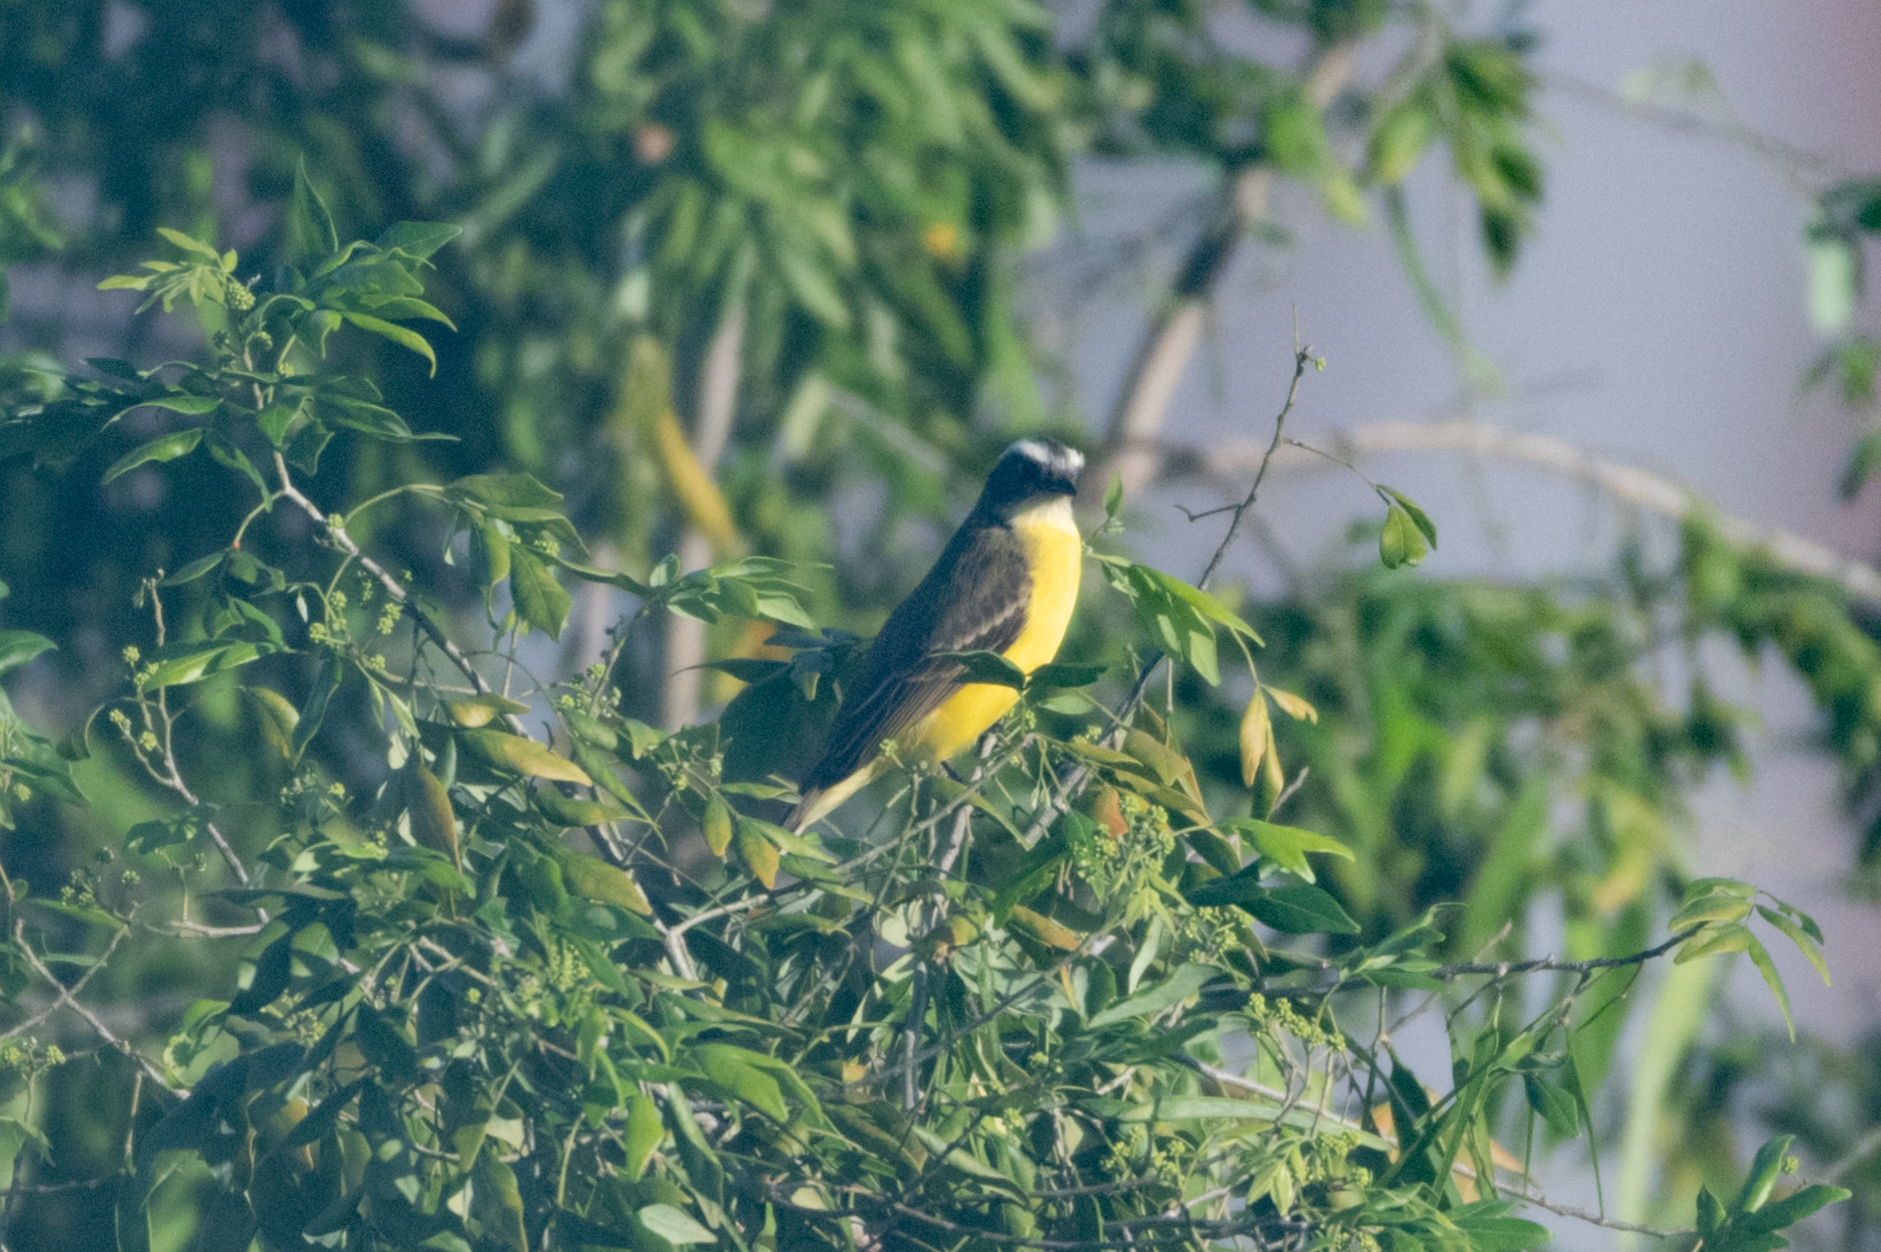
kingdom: Animalia
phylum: Chordata
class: Aves
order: Passeriformes
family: Tyrannidae
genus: Myiozetetes
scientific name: Myiozetetes similis
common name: Social flycatcher
